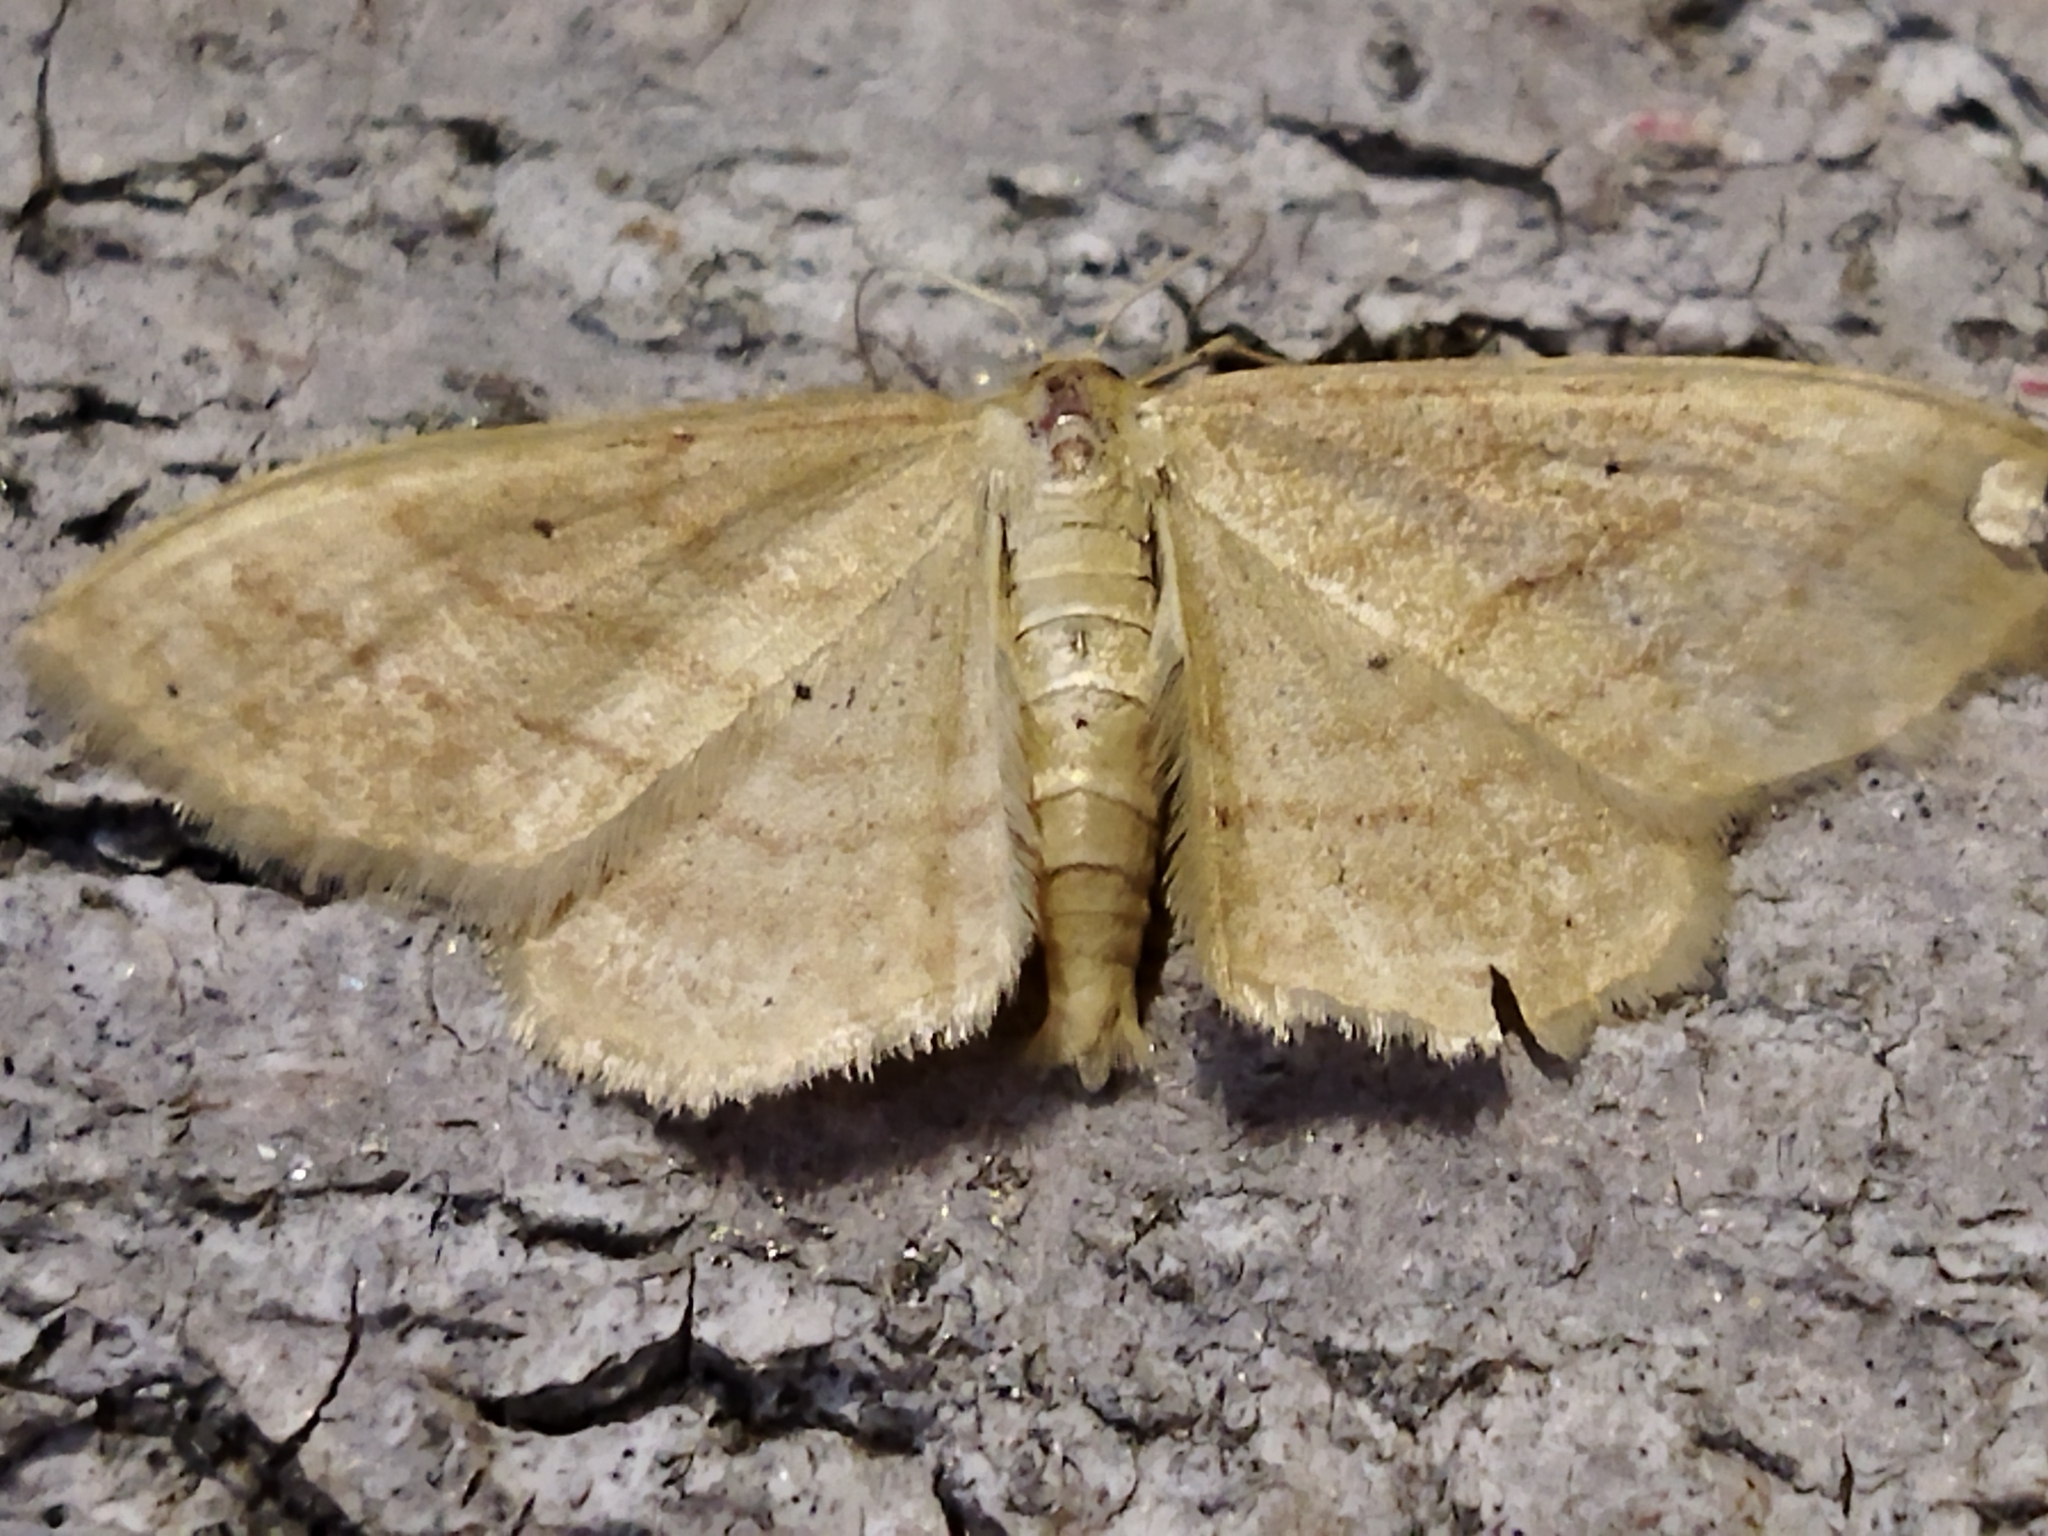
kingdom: Animalia
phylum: Arthropoda
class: Insecta
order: Lepidoptera
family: Geometridae
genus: Idaea
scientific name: Idaea rufaria
